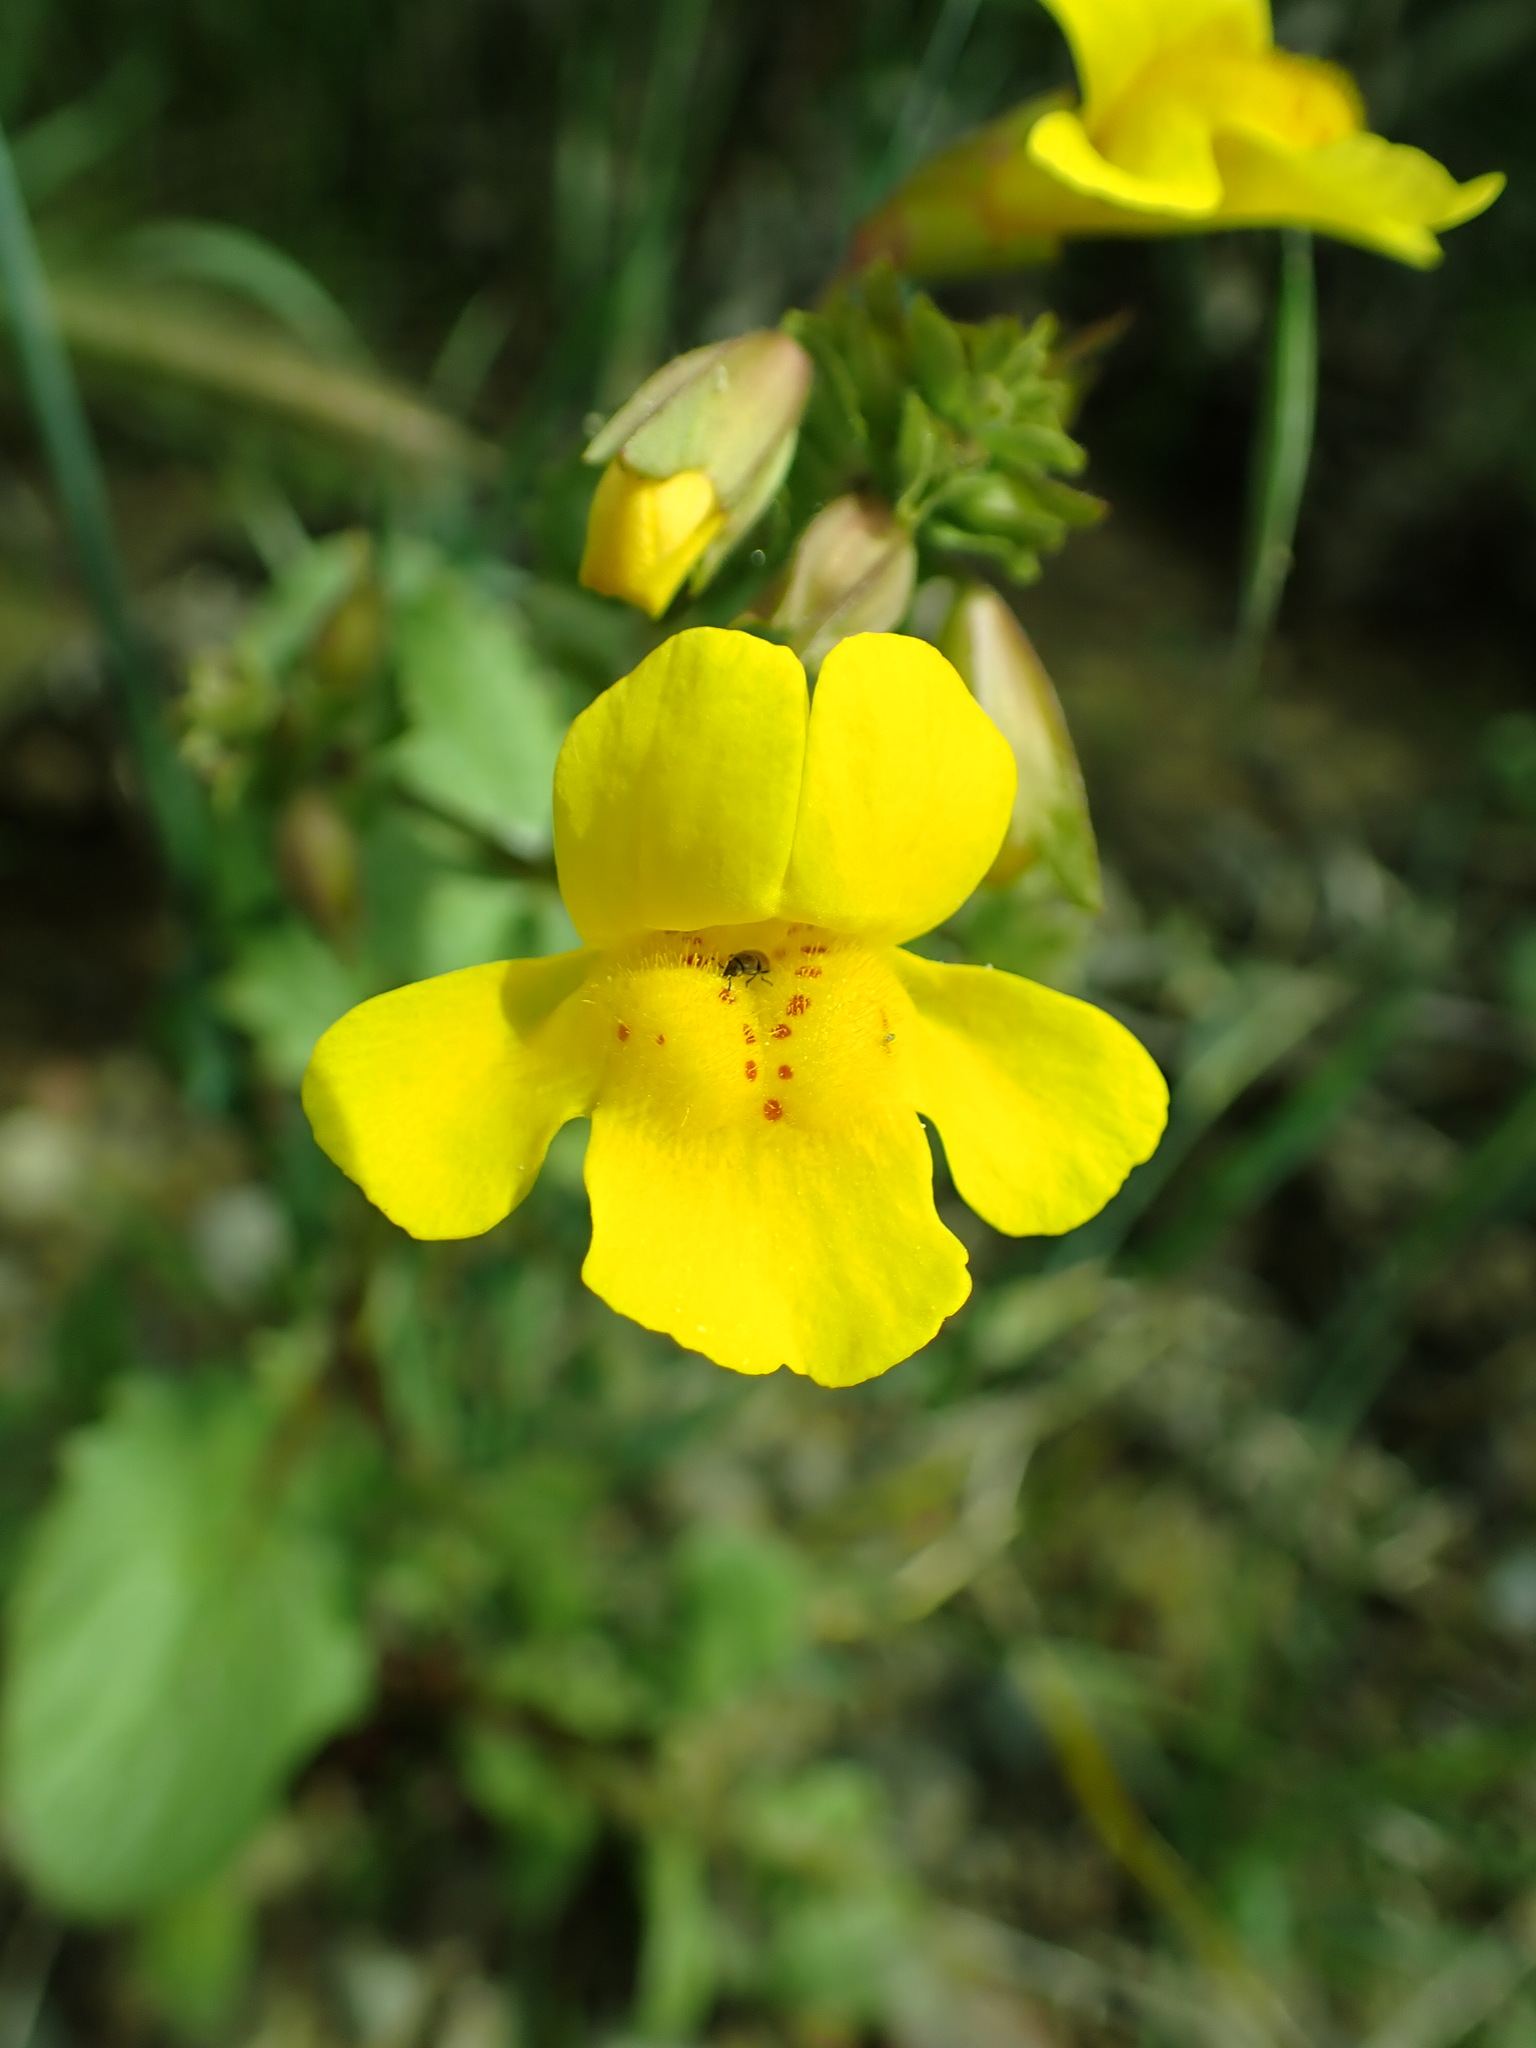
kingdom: Plantae
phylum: Tracheophyta
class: Magnoliopsida
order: Lamiales
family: Phrymaceae
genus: Erythranthe
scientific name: Erythranthe guttata
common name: Monkeyflower
